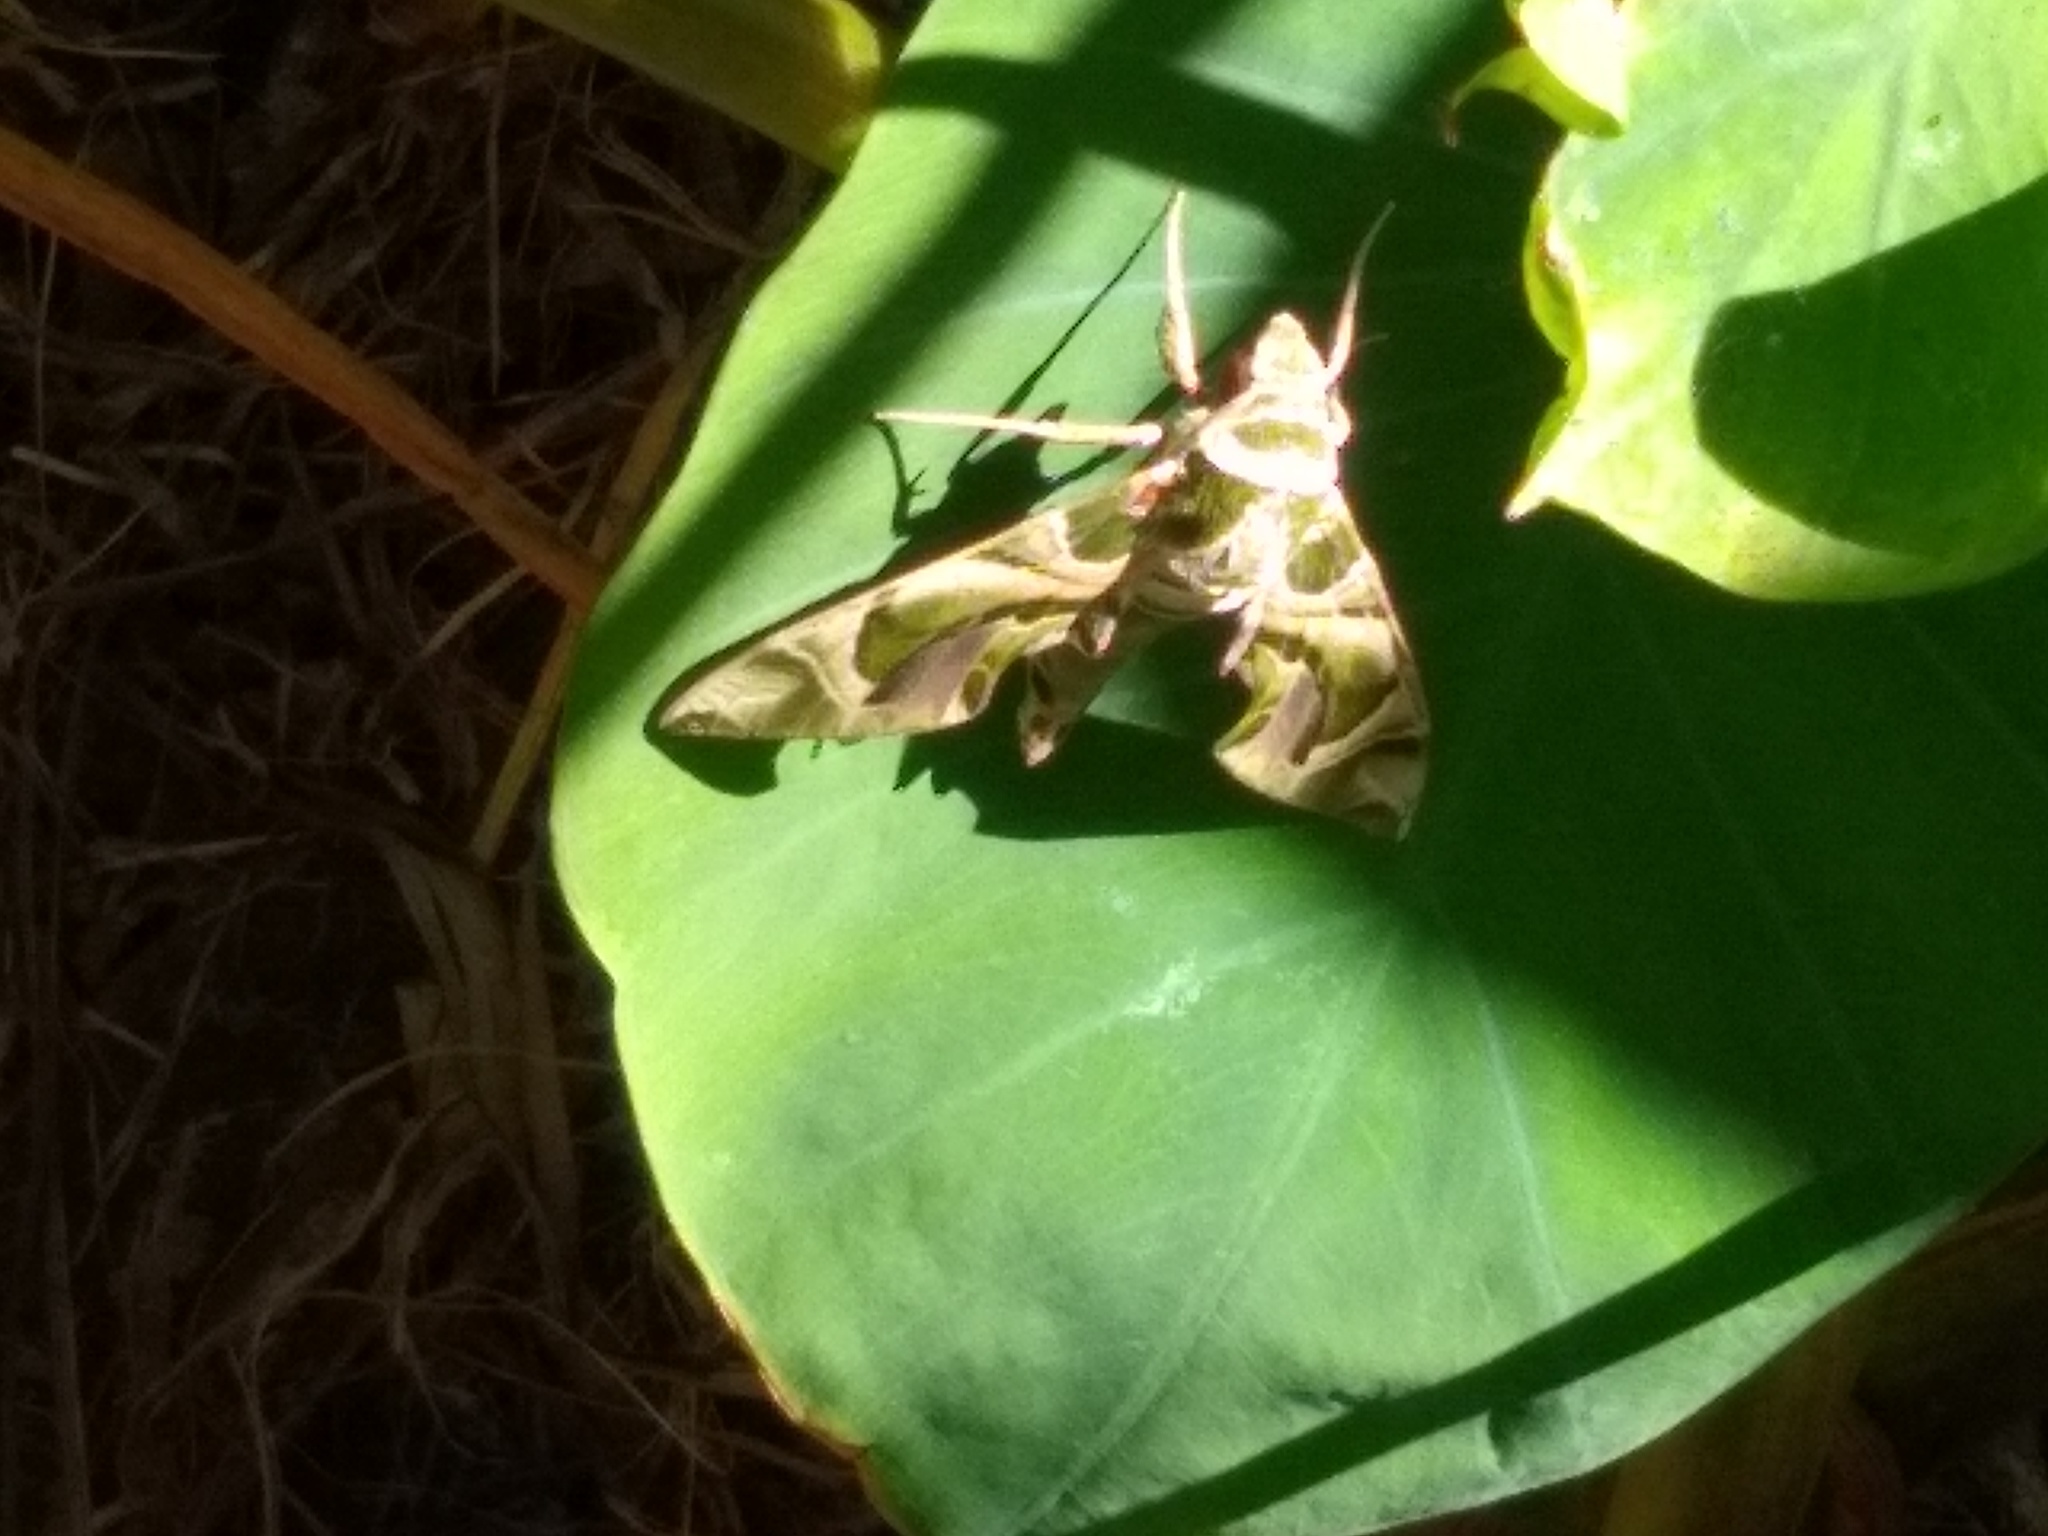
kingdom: Animalia
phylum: Arthropoda
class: Insecta
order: Lepidoptera
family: Sphingidae
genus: Daphnis
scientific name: Daphnis nerii
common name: Oleander hawk-moth
